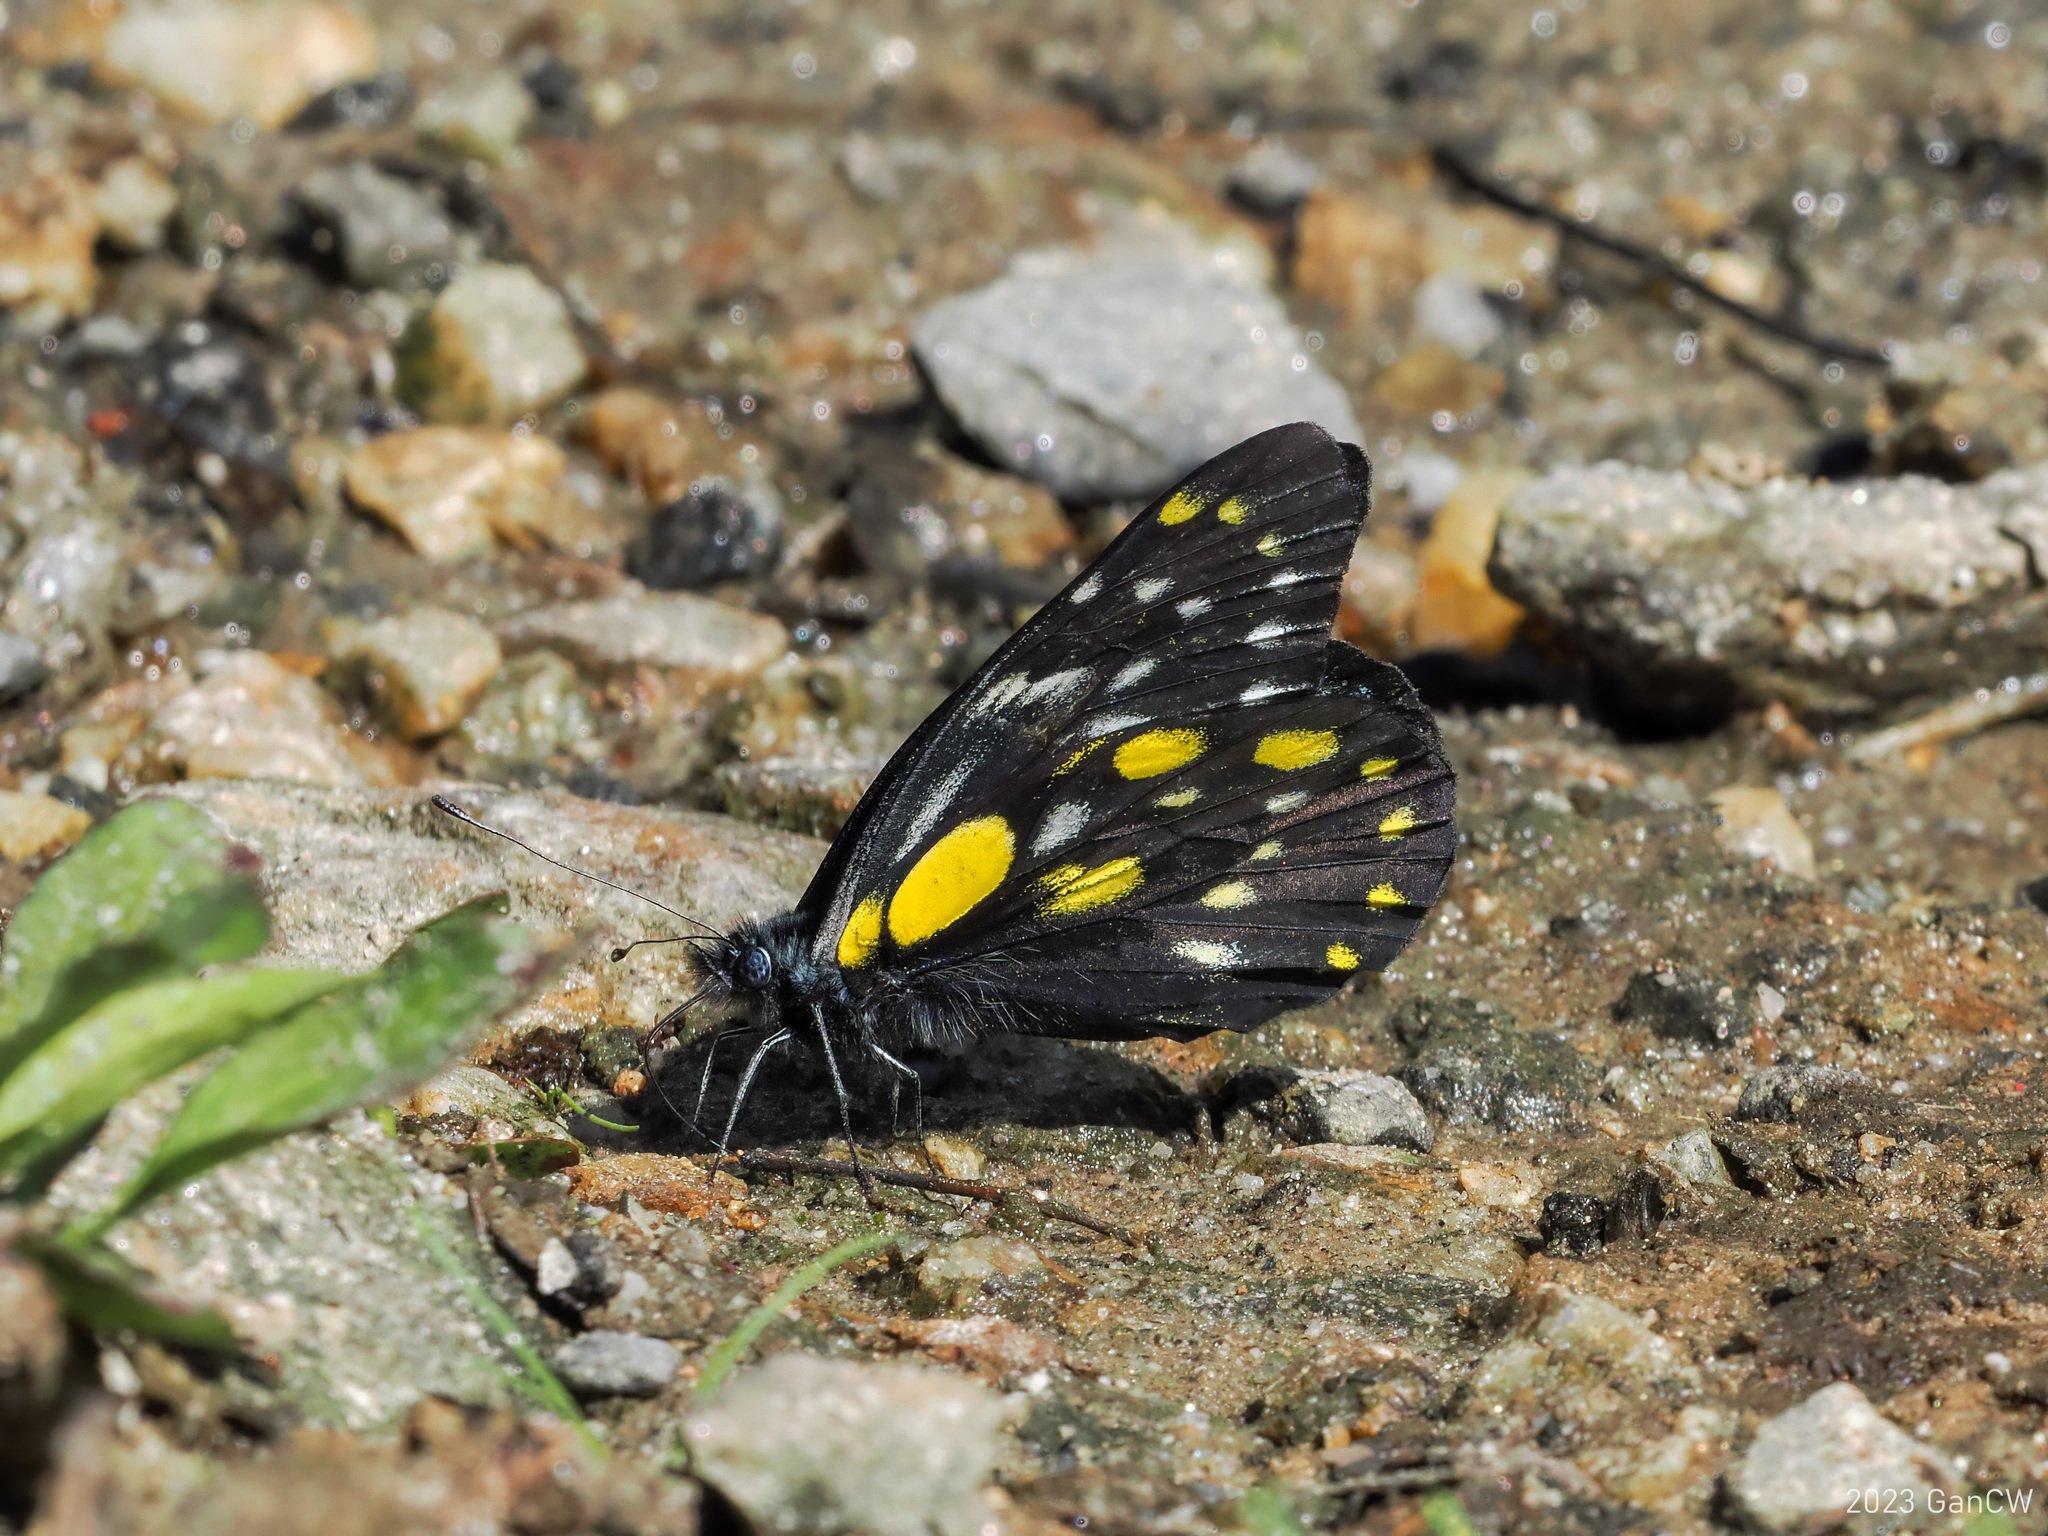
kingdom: Animalia
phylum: Arthropoda
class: Insecta
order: Lepidoptera
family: Pieridae
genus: Delias
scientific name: Delias belladonna
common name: Hill jezebel
